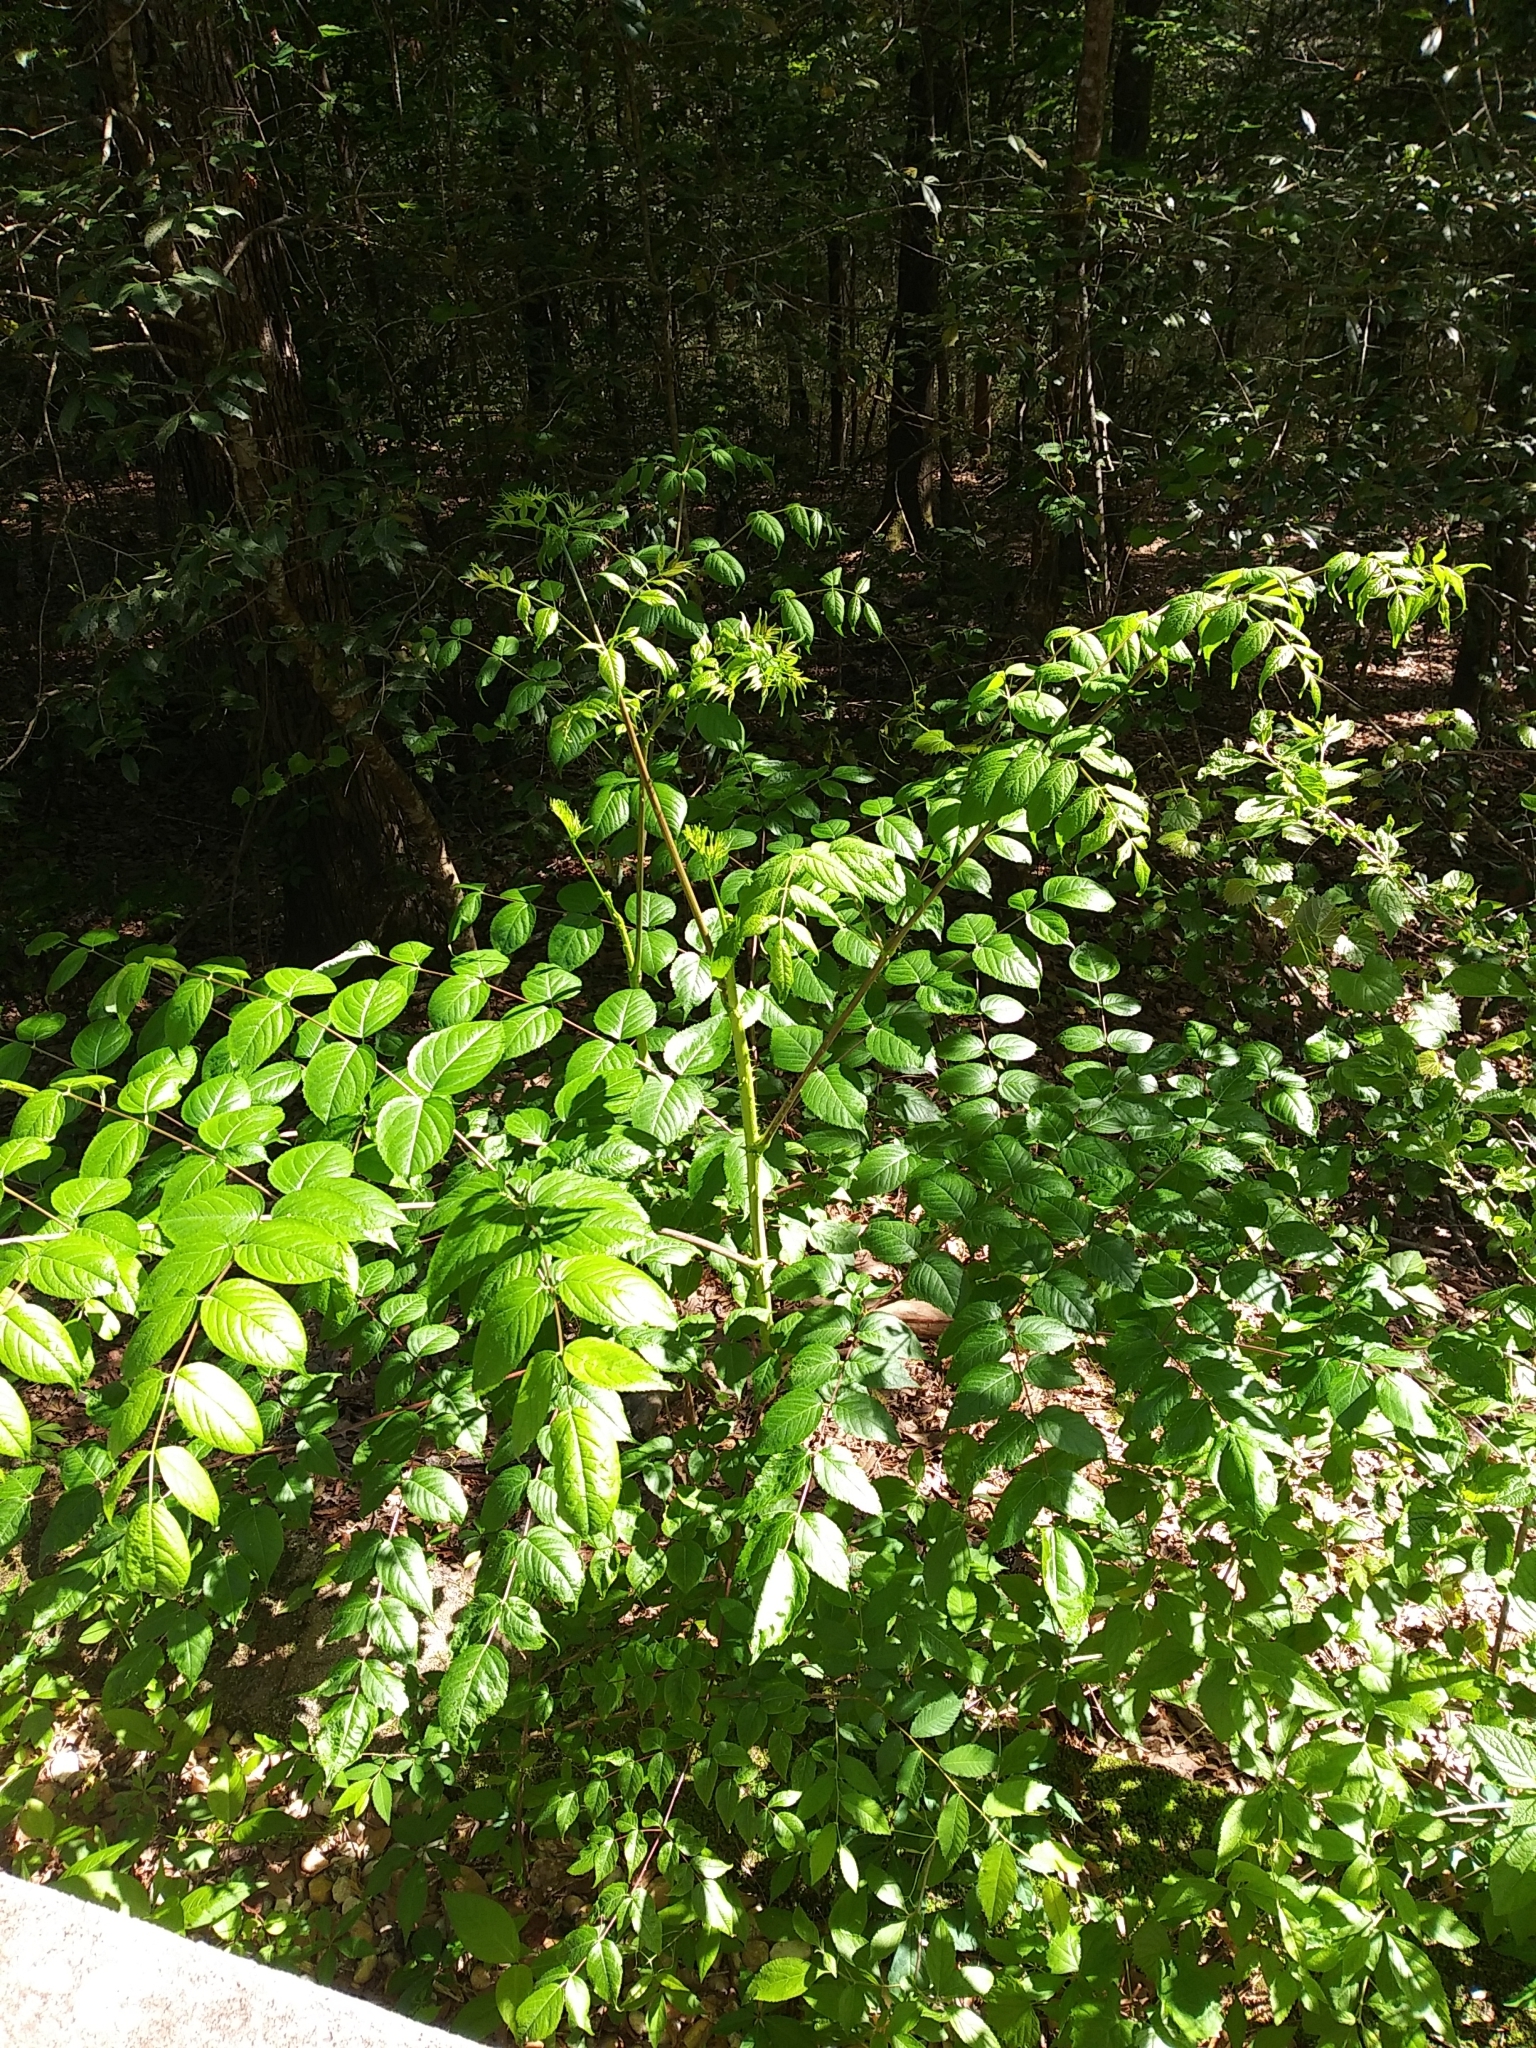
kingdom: Plantae
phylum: Tracheophyta
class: Magnoliopsida
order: Apiales
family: Araliaceae
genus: Aralia
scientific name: Aralia spinosa
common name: Hercules'-club
